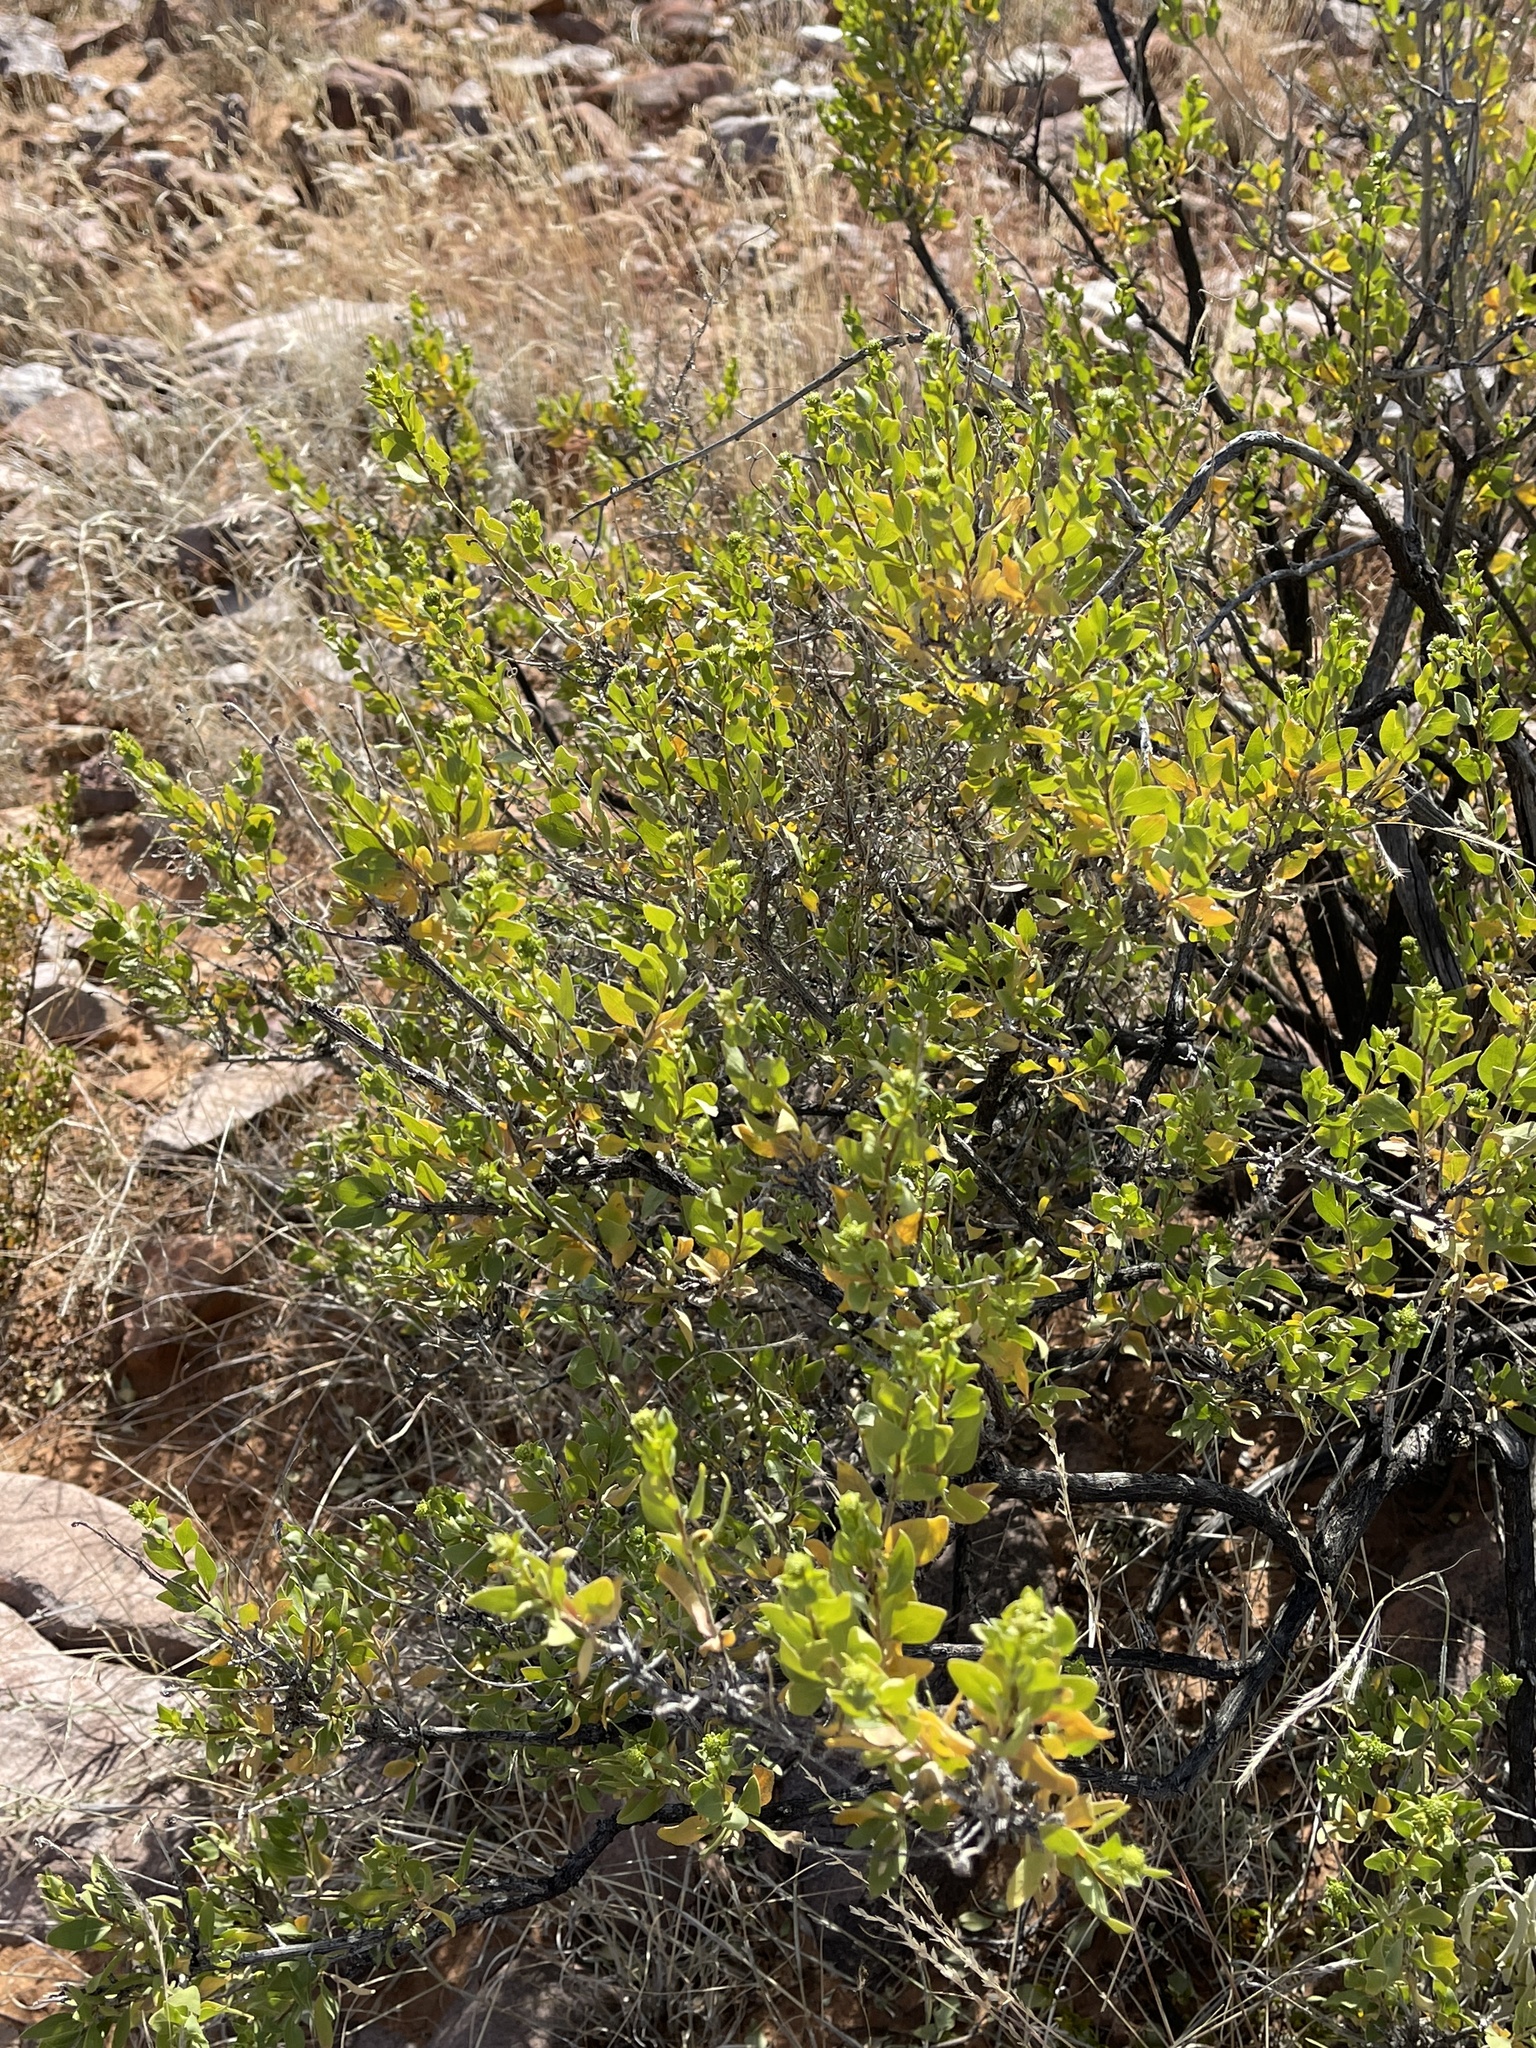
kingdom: Plantae
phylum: Tracheophyta
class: Magnoliopsida
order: Asterales
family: Asteraceae
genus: Flourensia
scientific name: Flourensia cernua
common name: Varnishbush
